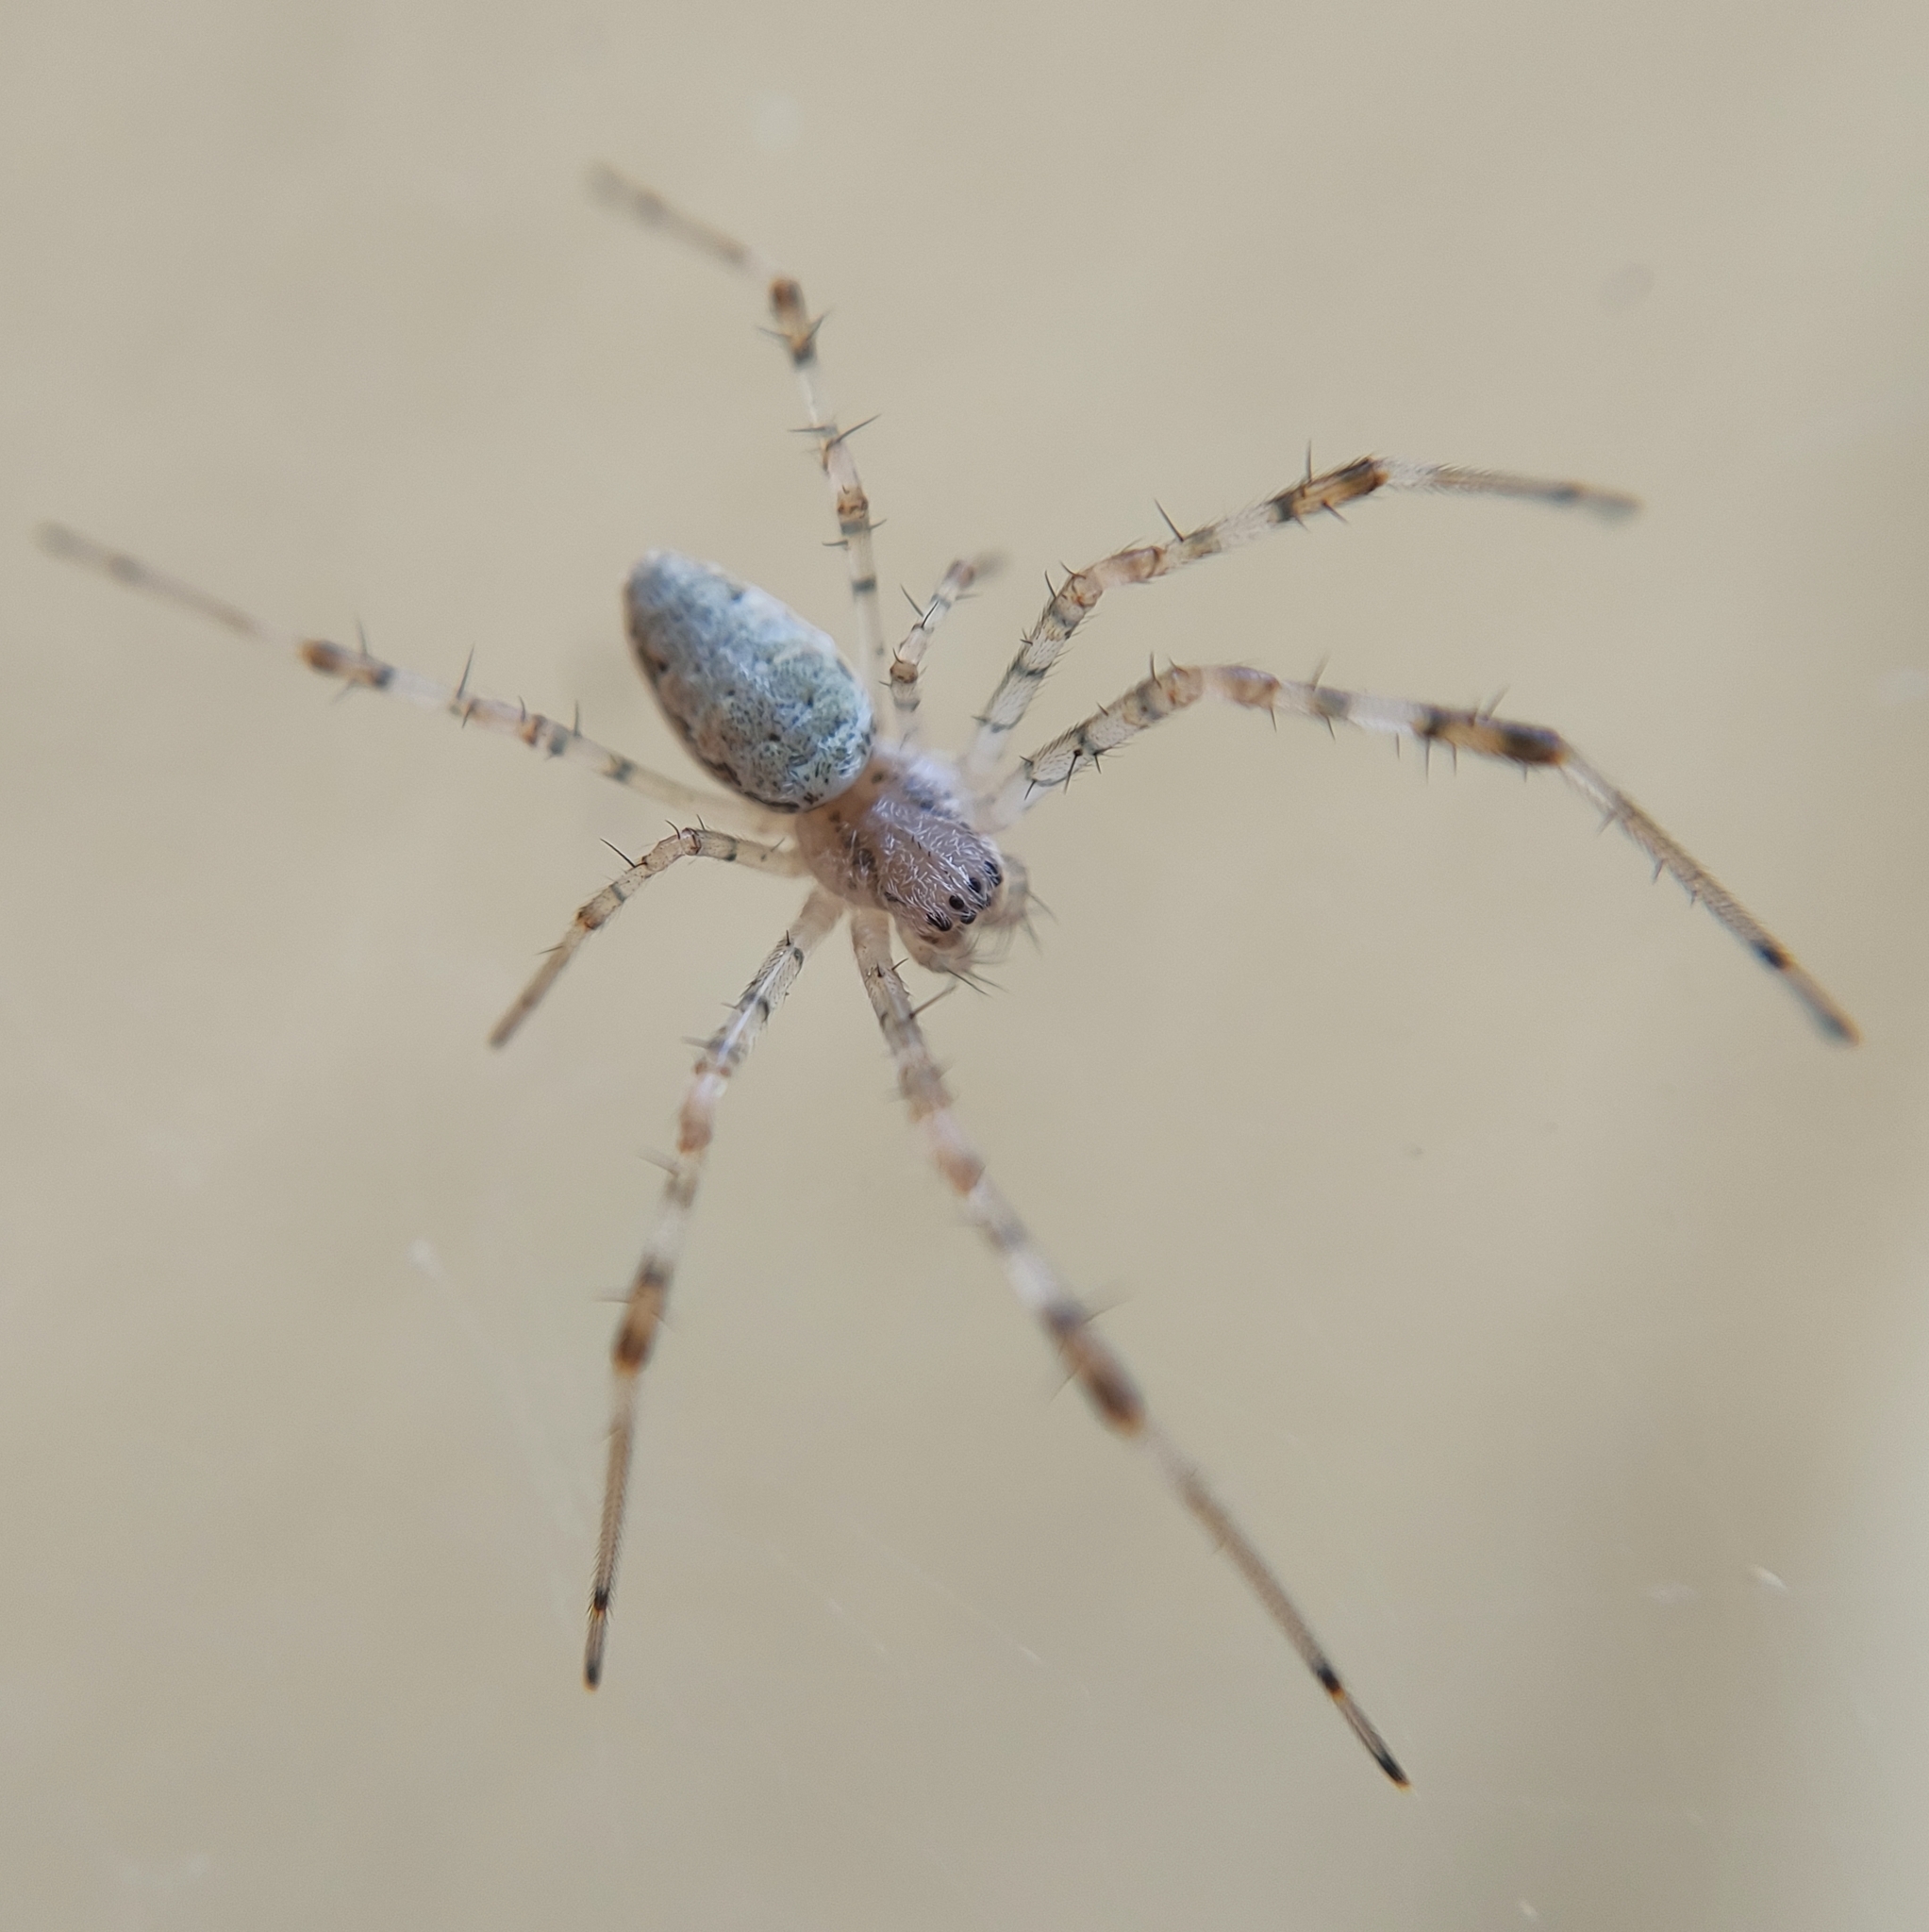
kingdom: Animalia
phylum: Arthropoda
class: Arachnida
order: Araneae
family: Araneidae
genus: Nephilingis
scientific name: Nephilingis cruentata
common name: African hermit spider
